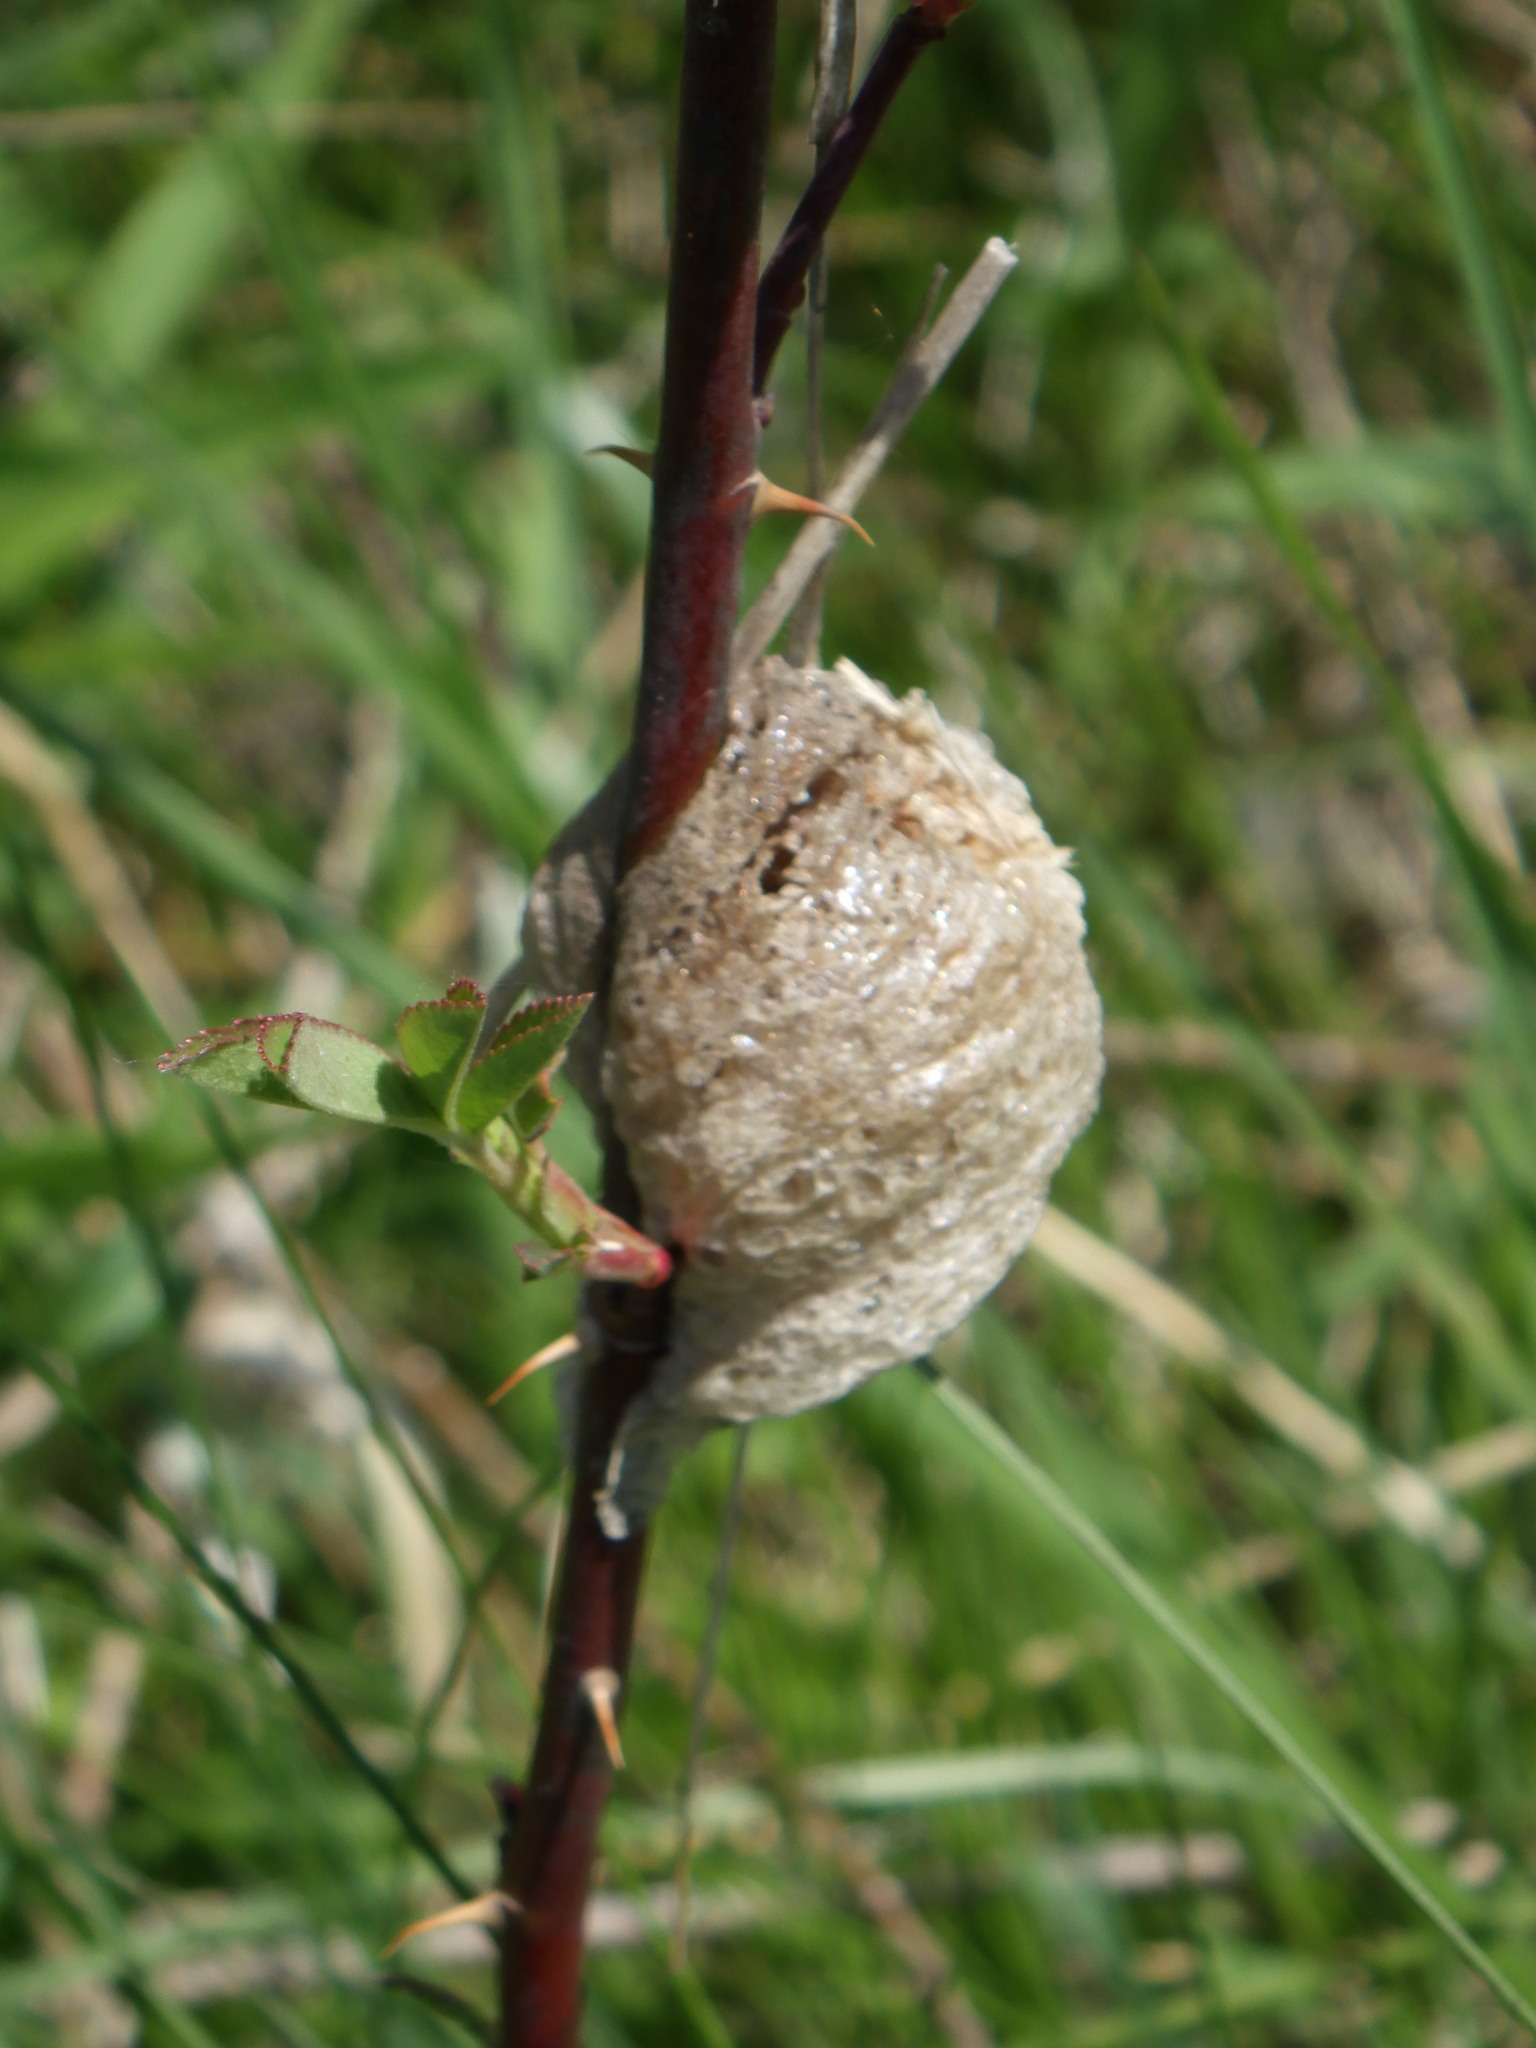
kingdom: Animalia
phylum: Arthropoda
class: Insecta
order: Mantodea
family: Mantidae
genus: Tenodera
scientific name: Tenodera sinensis
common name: Chinese mantis
